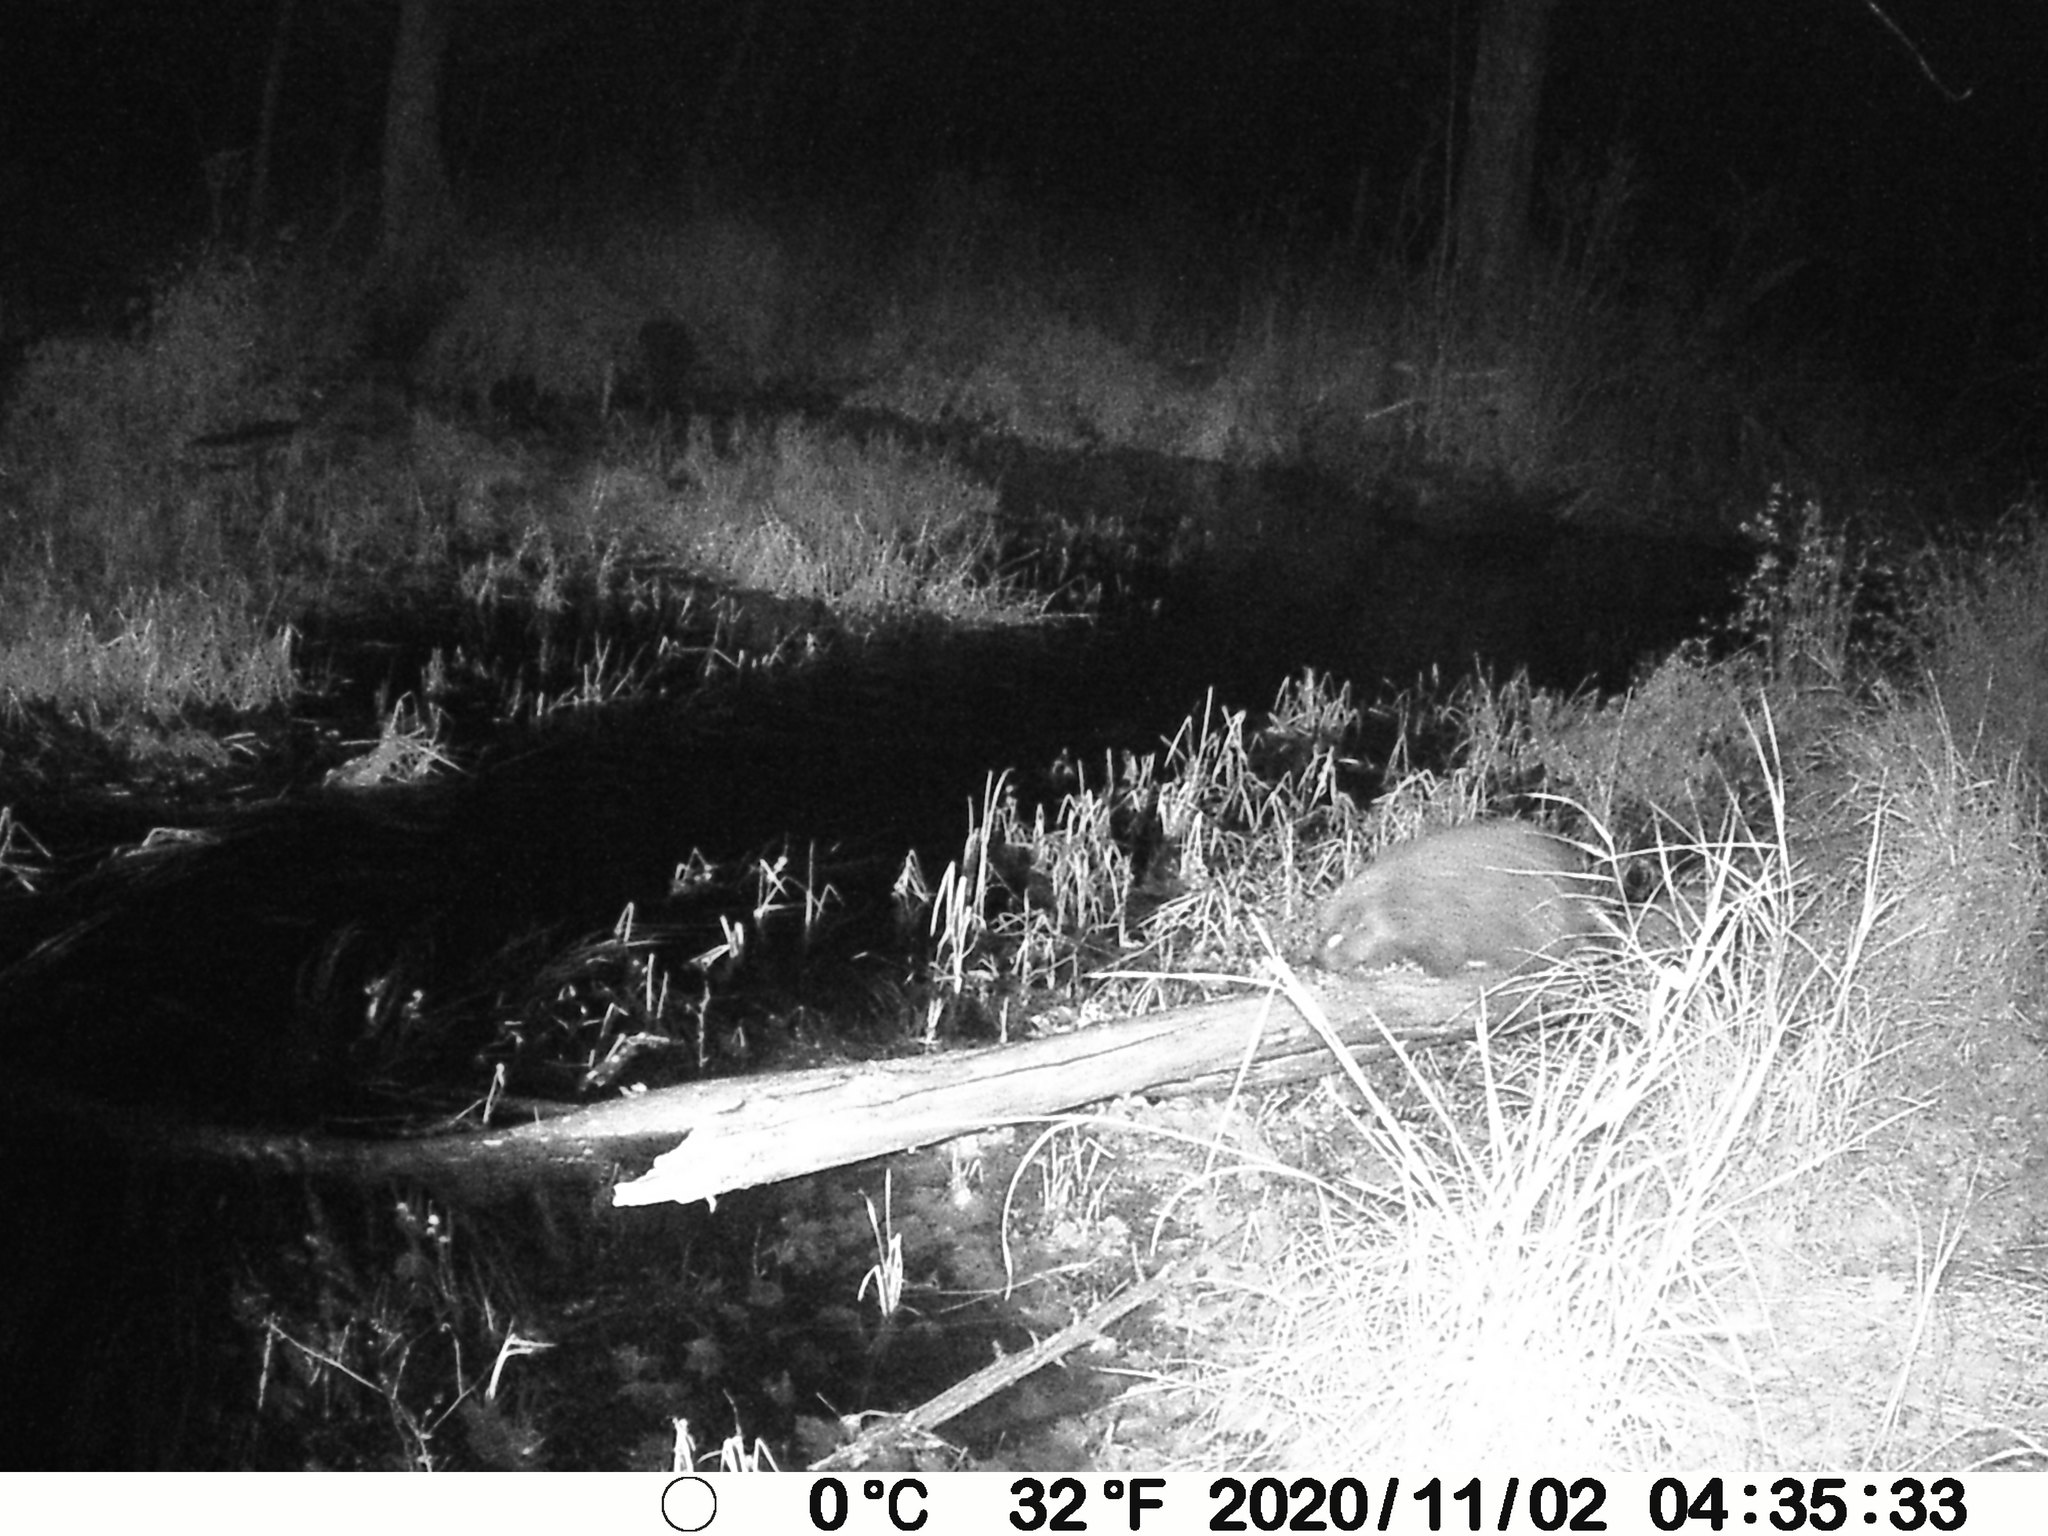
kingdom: Animalia
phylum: Chordata
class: Mammalia
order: Rodentia
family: Erethizontidae
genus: Erethizon
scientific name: Erethizon dorsatus
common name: North american porcupine
